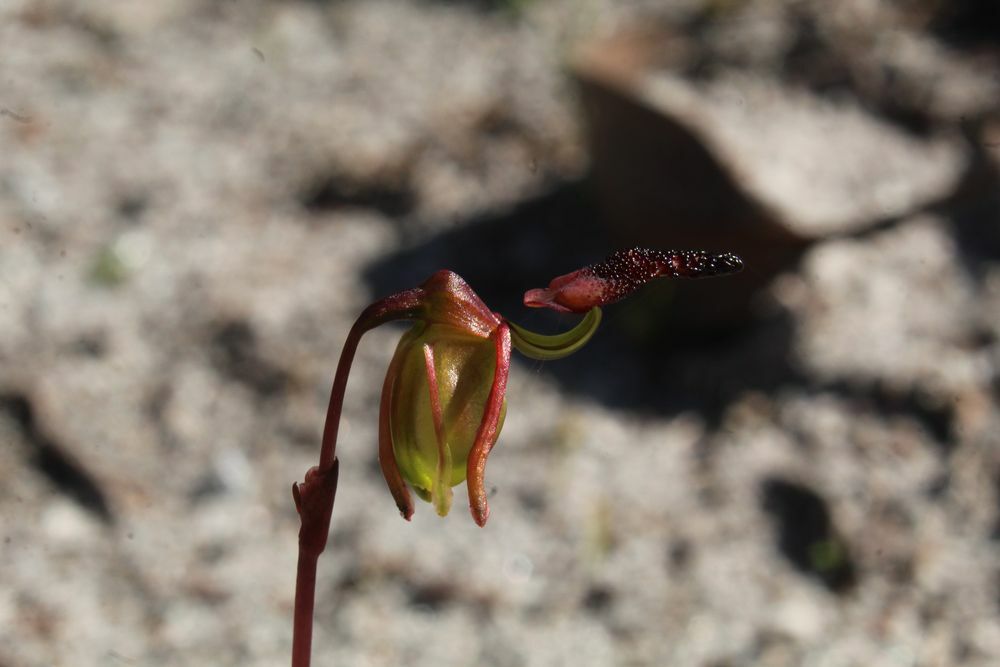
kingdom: Plantae
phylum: Tracheophyta
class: Liliopsida
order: Asparagales
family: Orchidaceae
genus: Caleana
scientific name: Caleana nigrita
